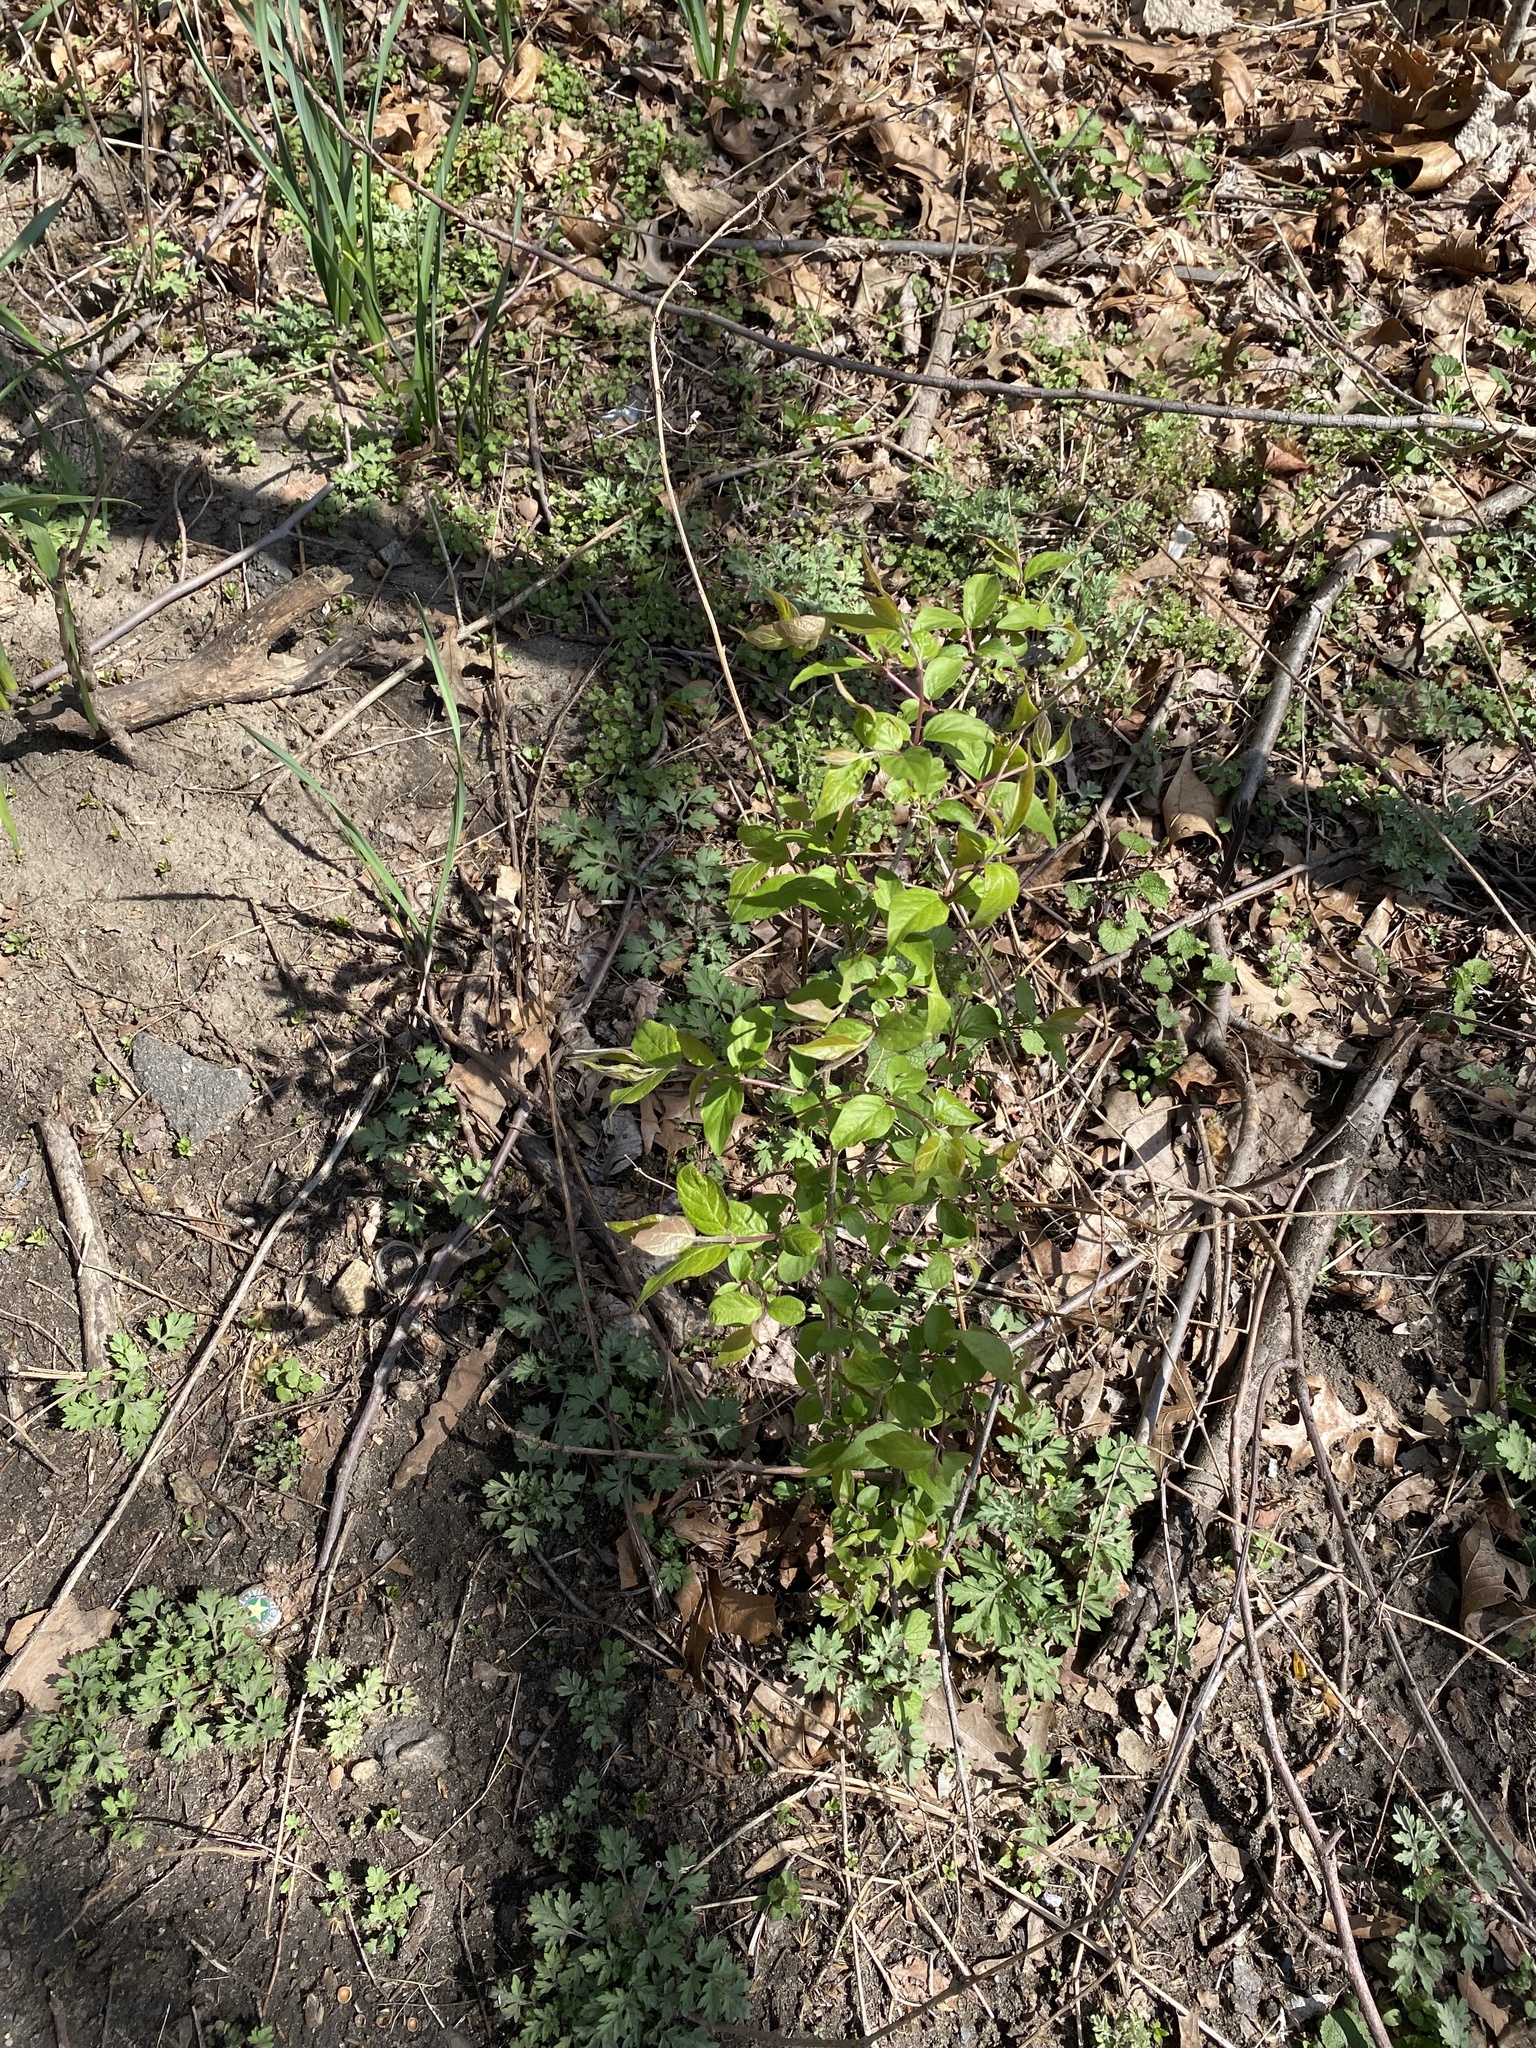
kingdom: Plantae
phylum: Tracheophyta
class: Magnoliopsida
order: Dipsacales
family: Caprifoliaceae
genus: Lonicera
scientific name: Lonicera maackii
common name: Amur honeysuckle
